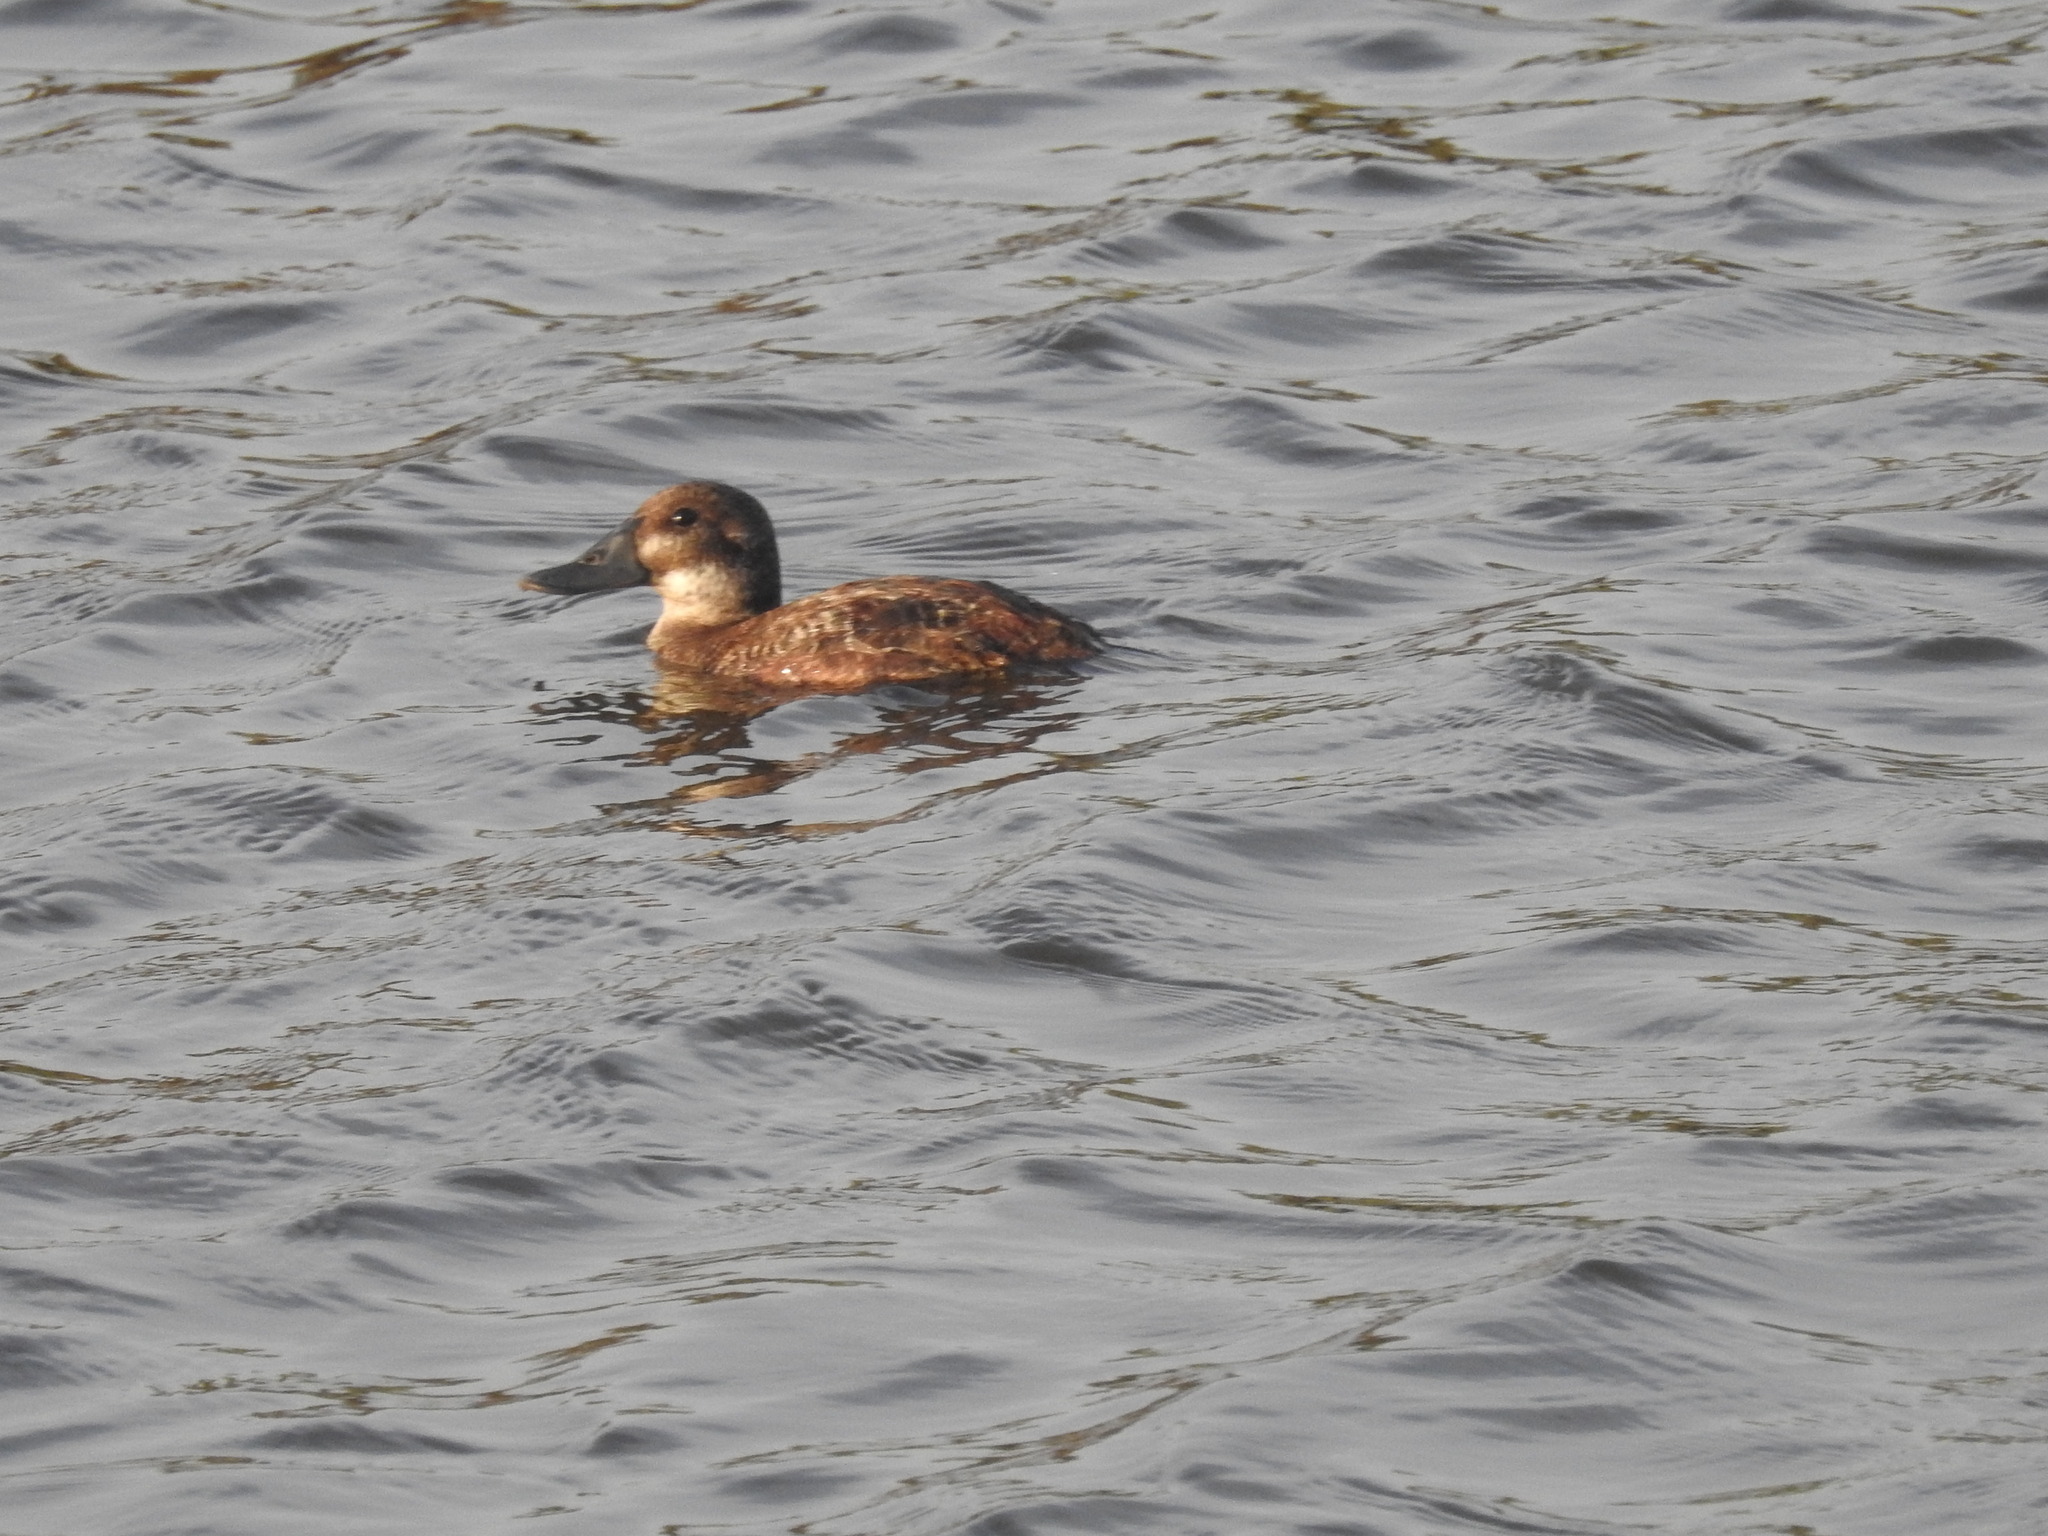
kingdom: Animalia
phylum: Chordata
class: Aves
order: Anseriformes
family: Anatidae
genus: Oxyura
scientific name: Oxyura vittata
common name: Lake duck
